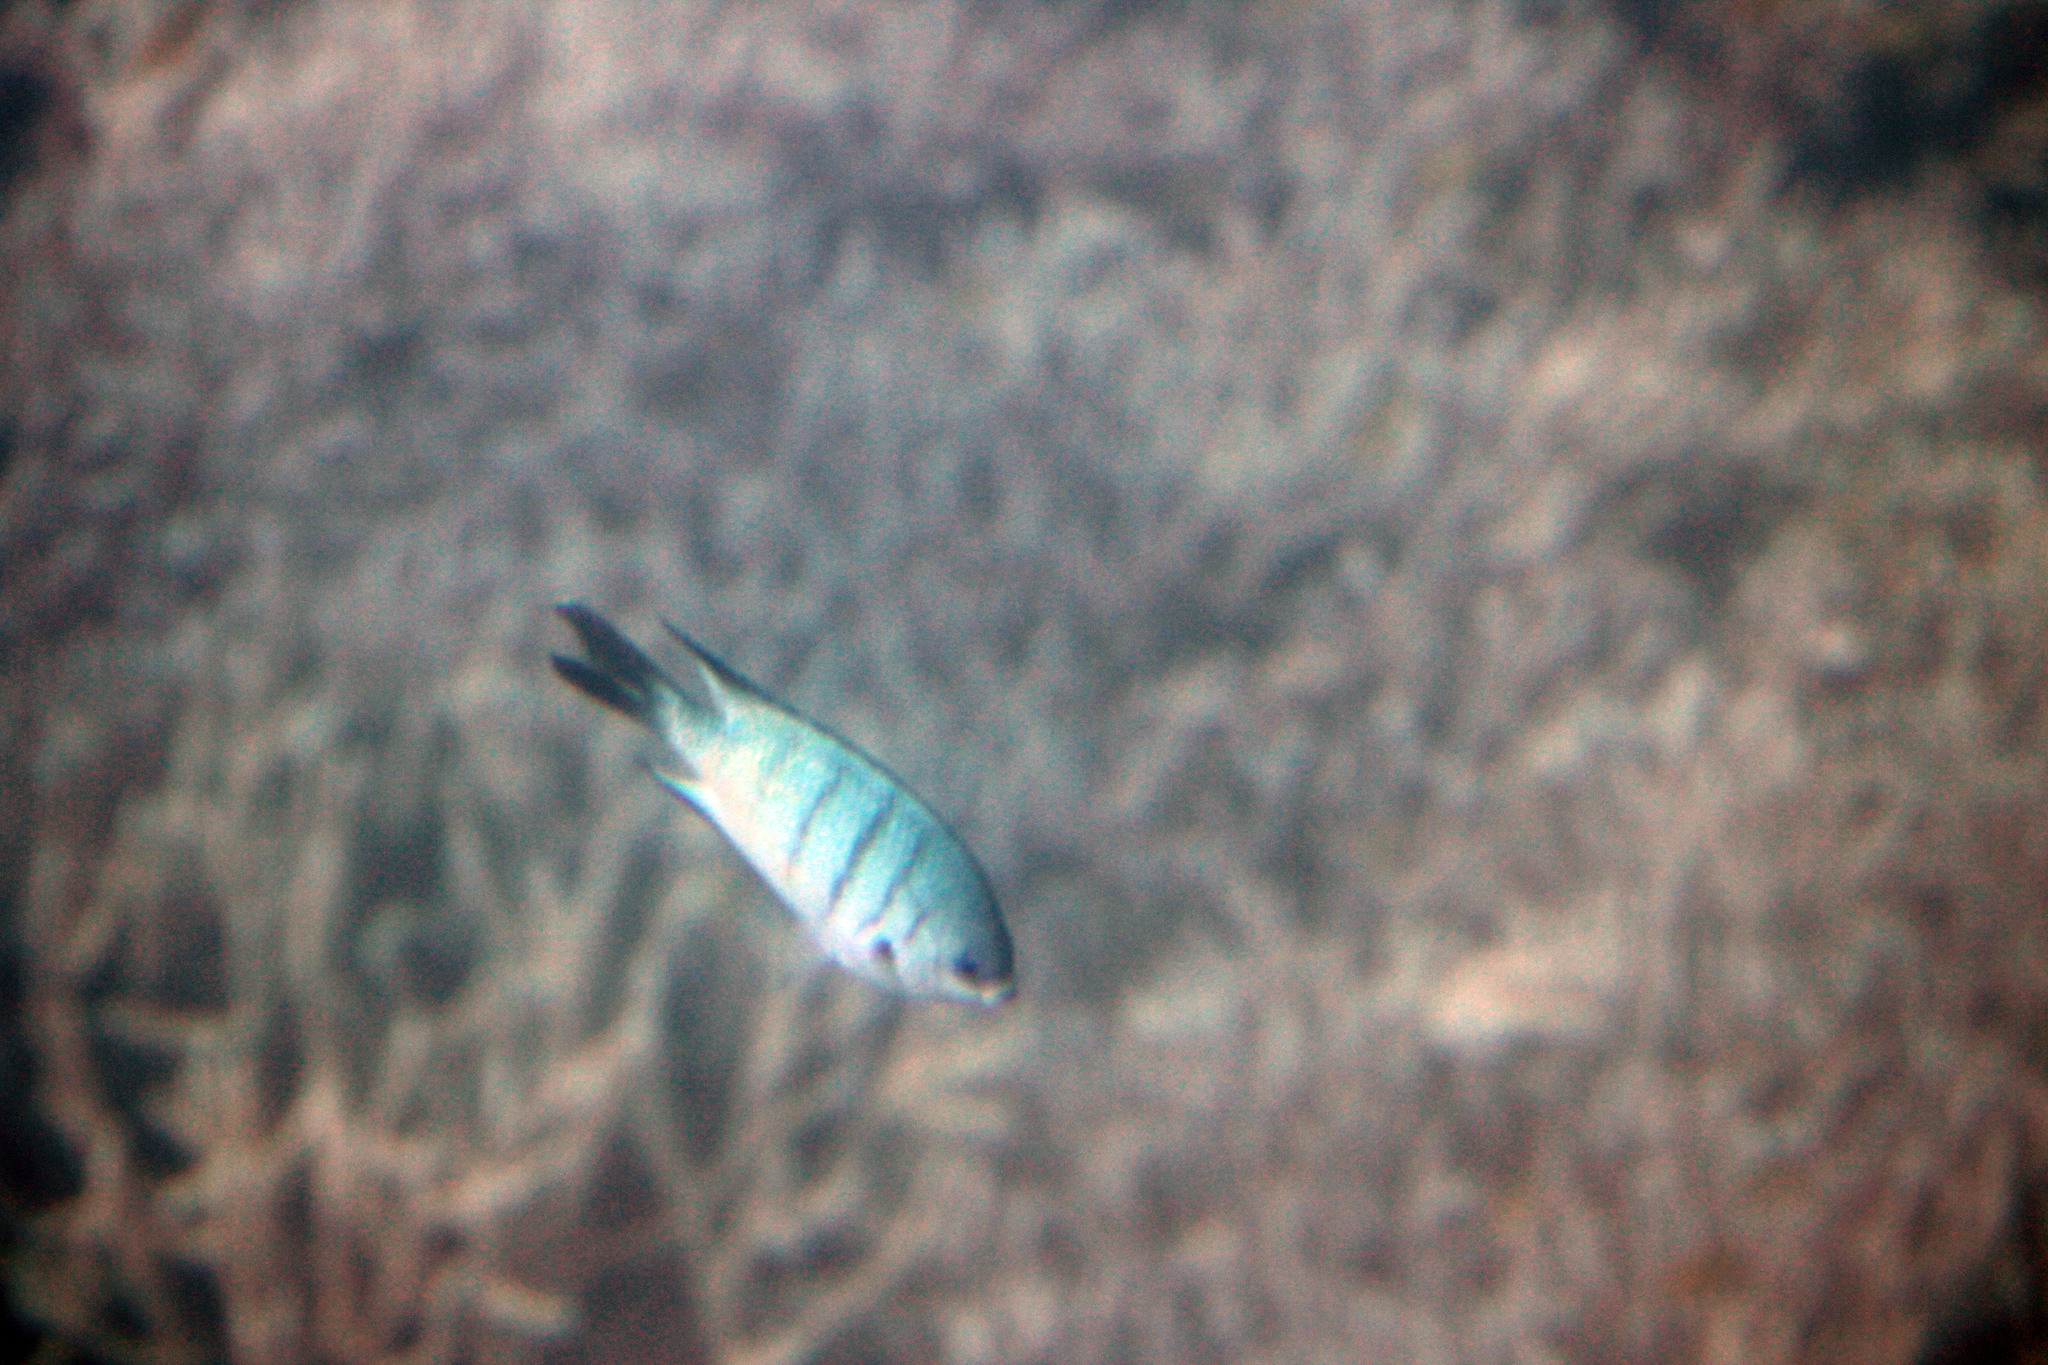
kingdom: Animalia
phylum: Chordata
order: Perciformes
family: Pomacentridae
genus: Abudefduf
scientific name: Abudefduf whitleyi
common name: Whitley's seargent
